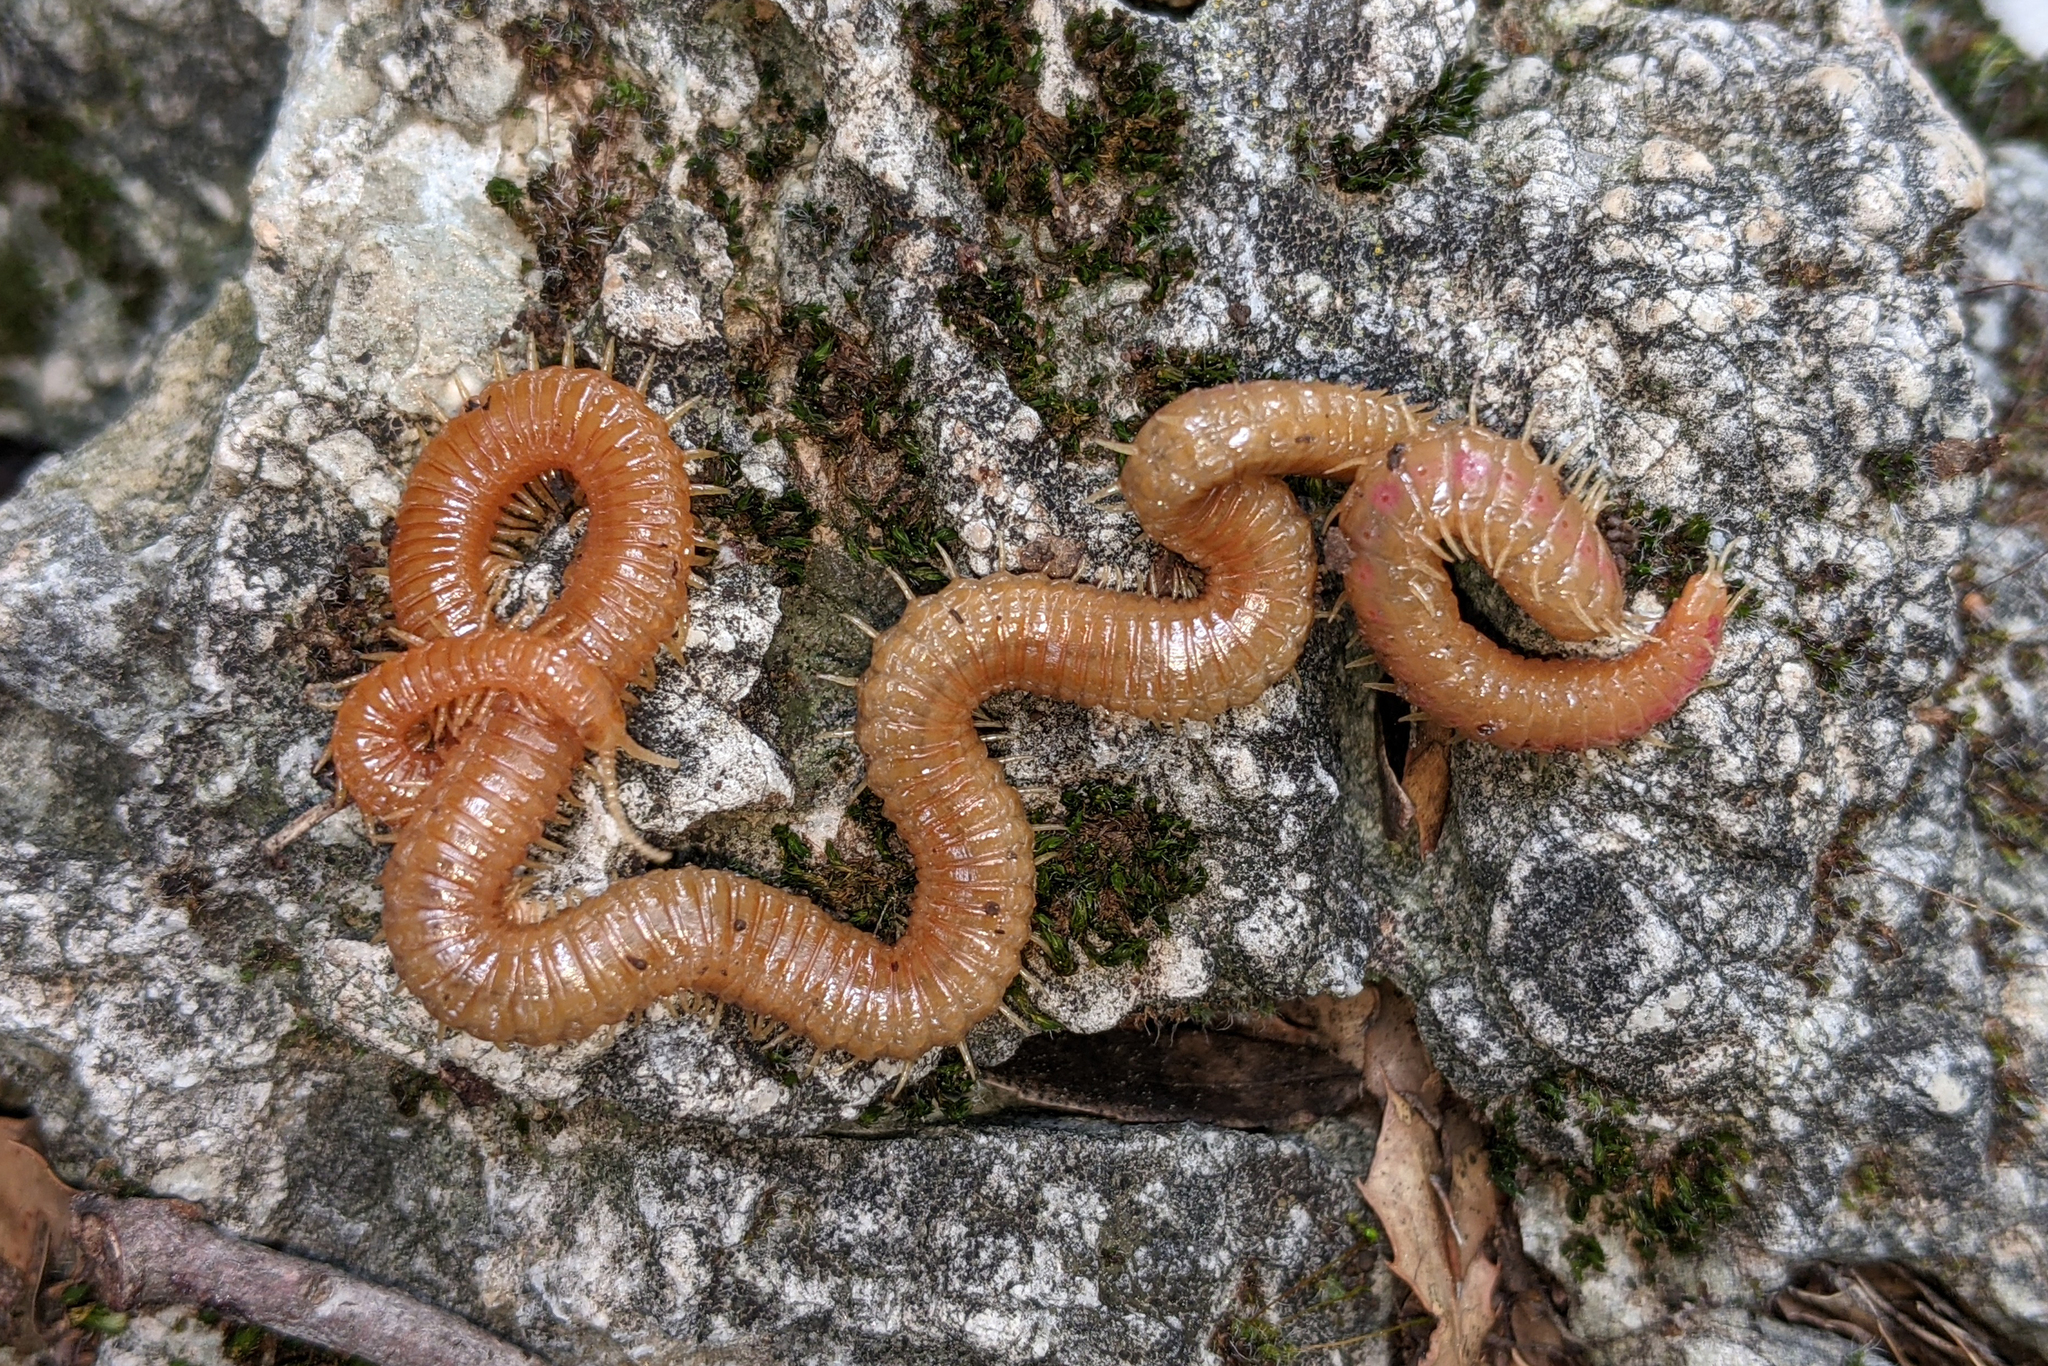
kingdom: Animalia
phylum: Arthropoda
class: Chilopoda
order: Geophilomorpha
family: Himantariidae
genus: Himantarium
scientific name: Himantarium gabrielis
